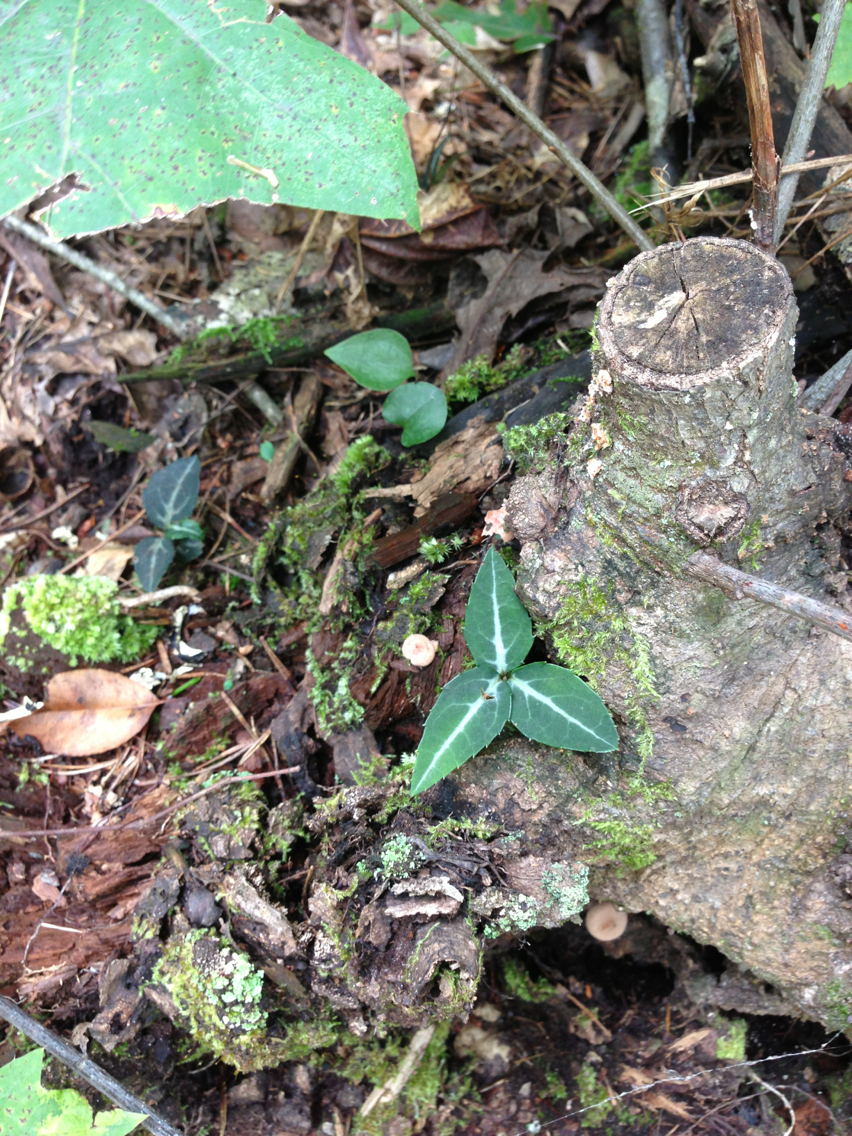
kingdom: Plantae
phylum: Tracheophyta
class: Magnoliopsida
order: Ericales
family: Ericaceae
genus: Chimaphila
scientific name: Chimaphila maculata
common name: Spotted pipsissewa
